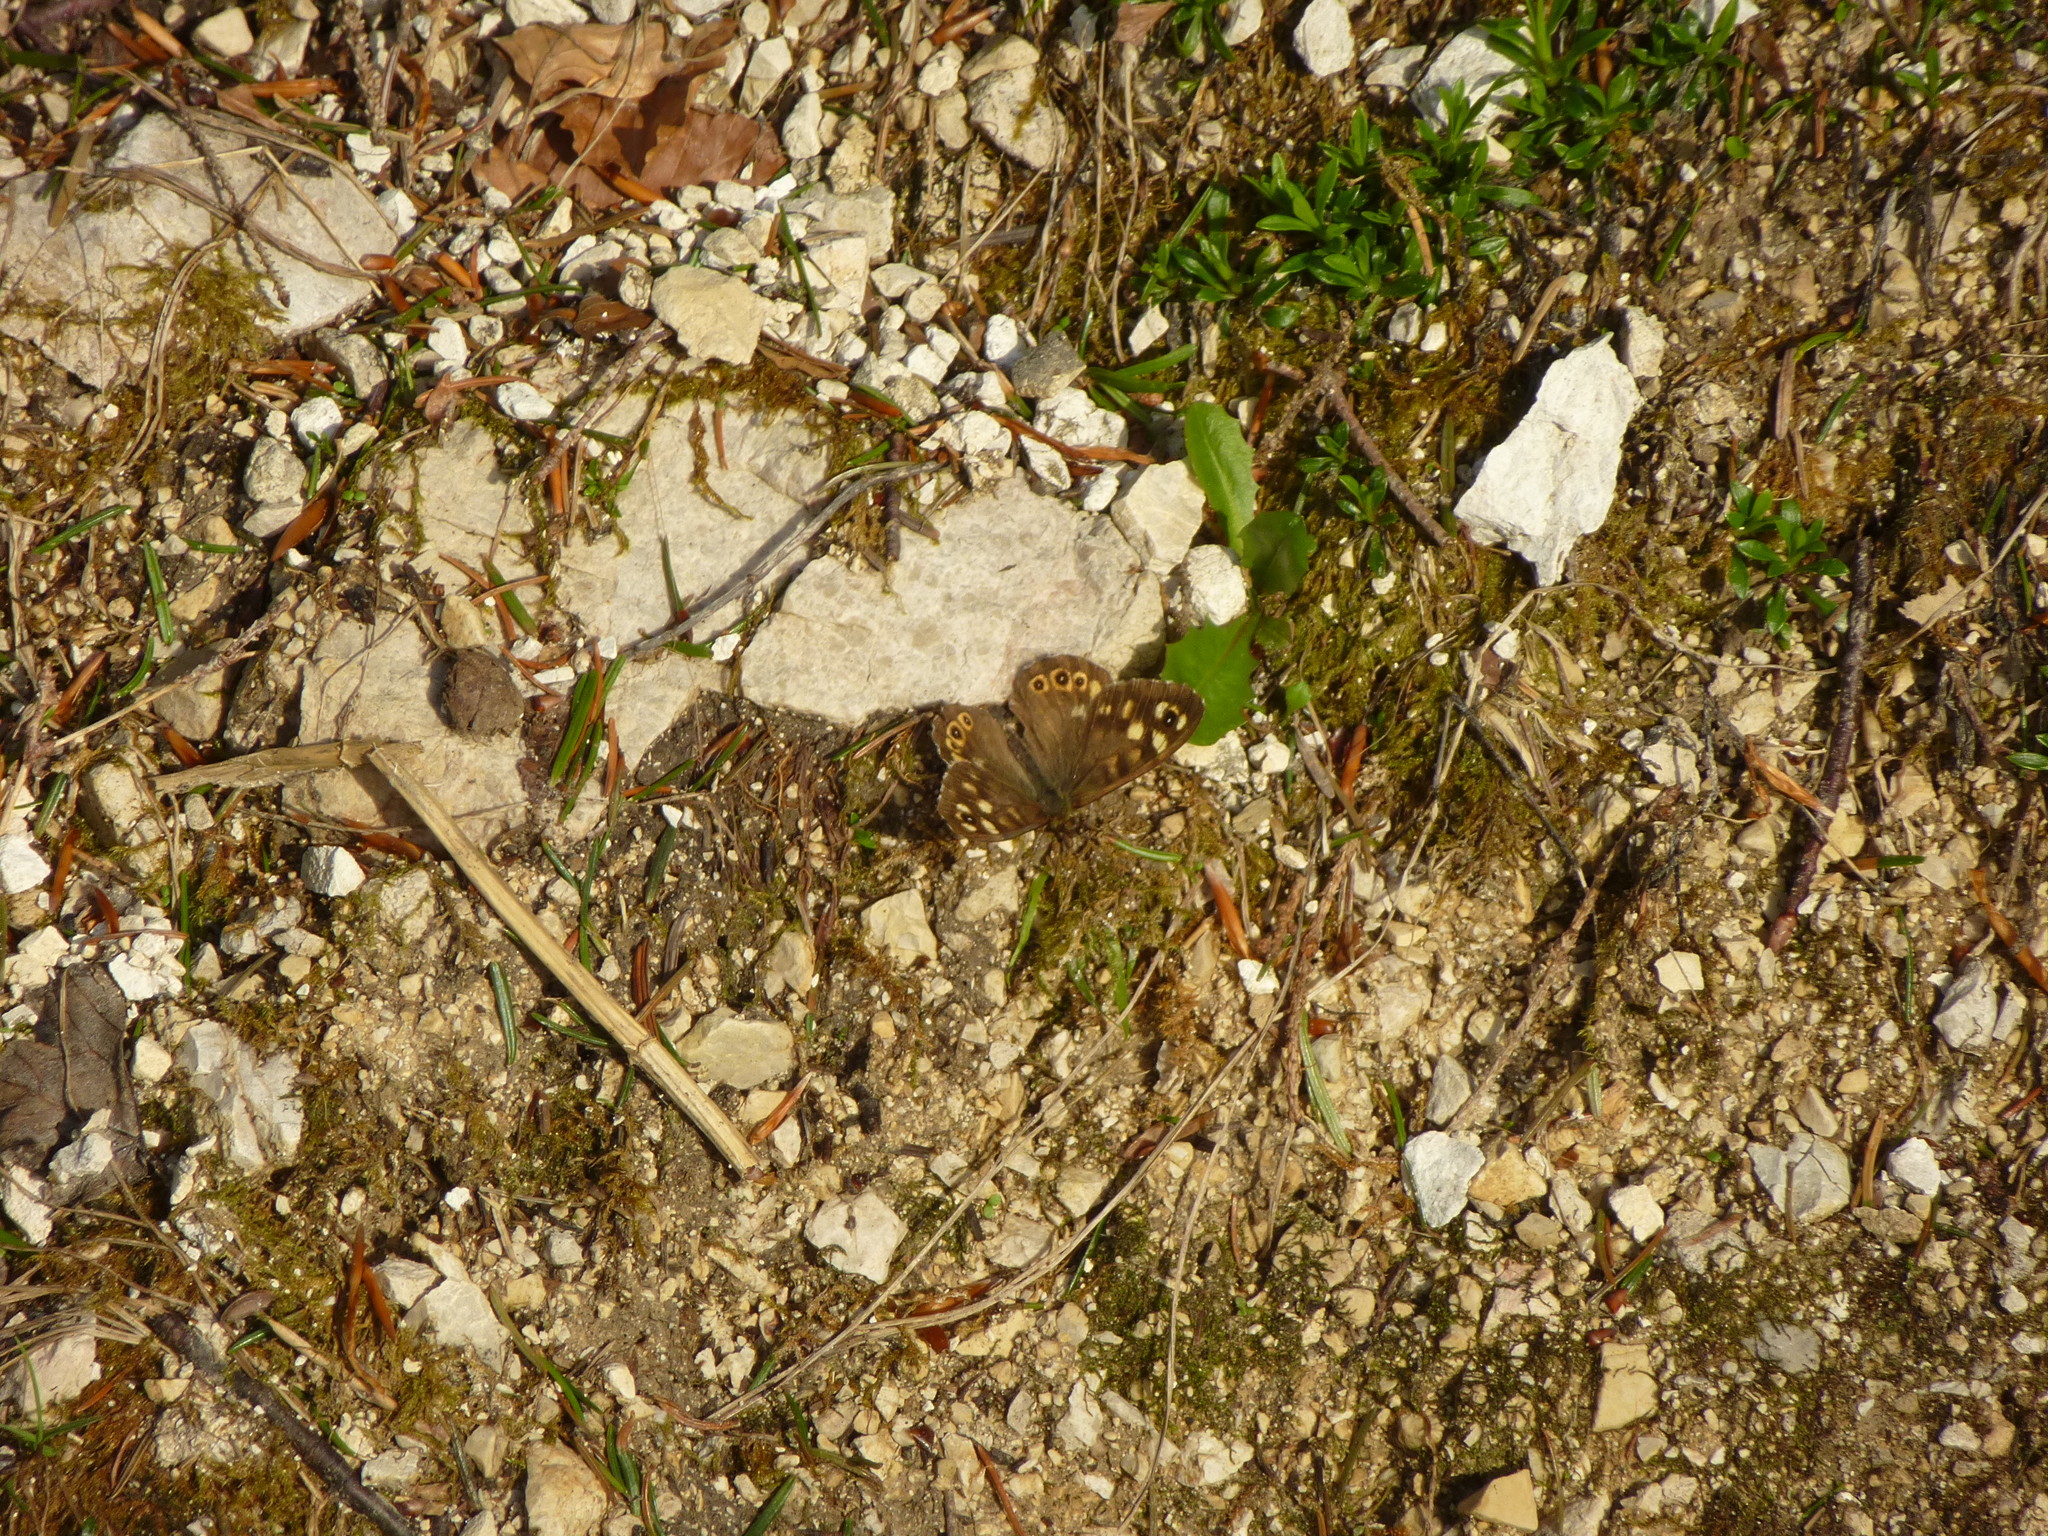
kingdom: Animalia
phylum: Arthropoda
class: Insecta
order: Lepidoptera
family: Nymphalidae
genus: Pararge
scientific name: Pararge aegeria
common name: Speckled wood
